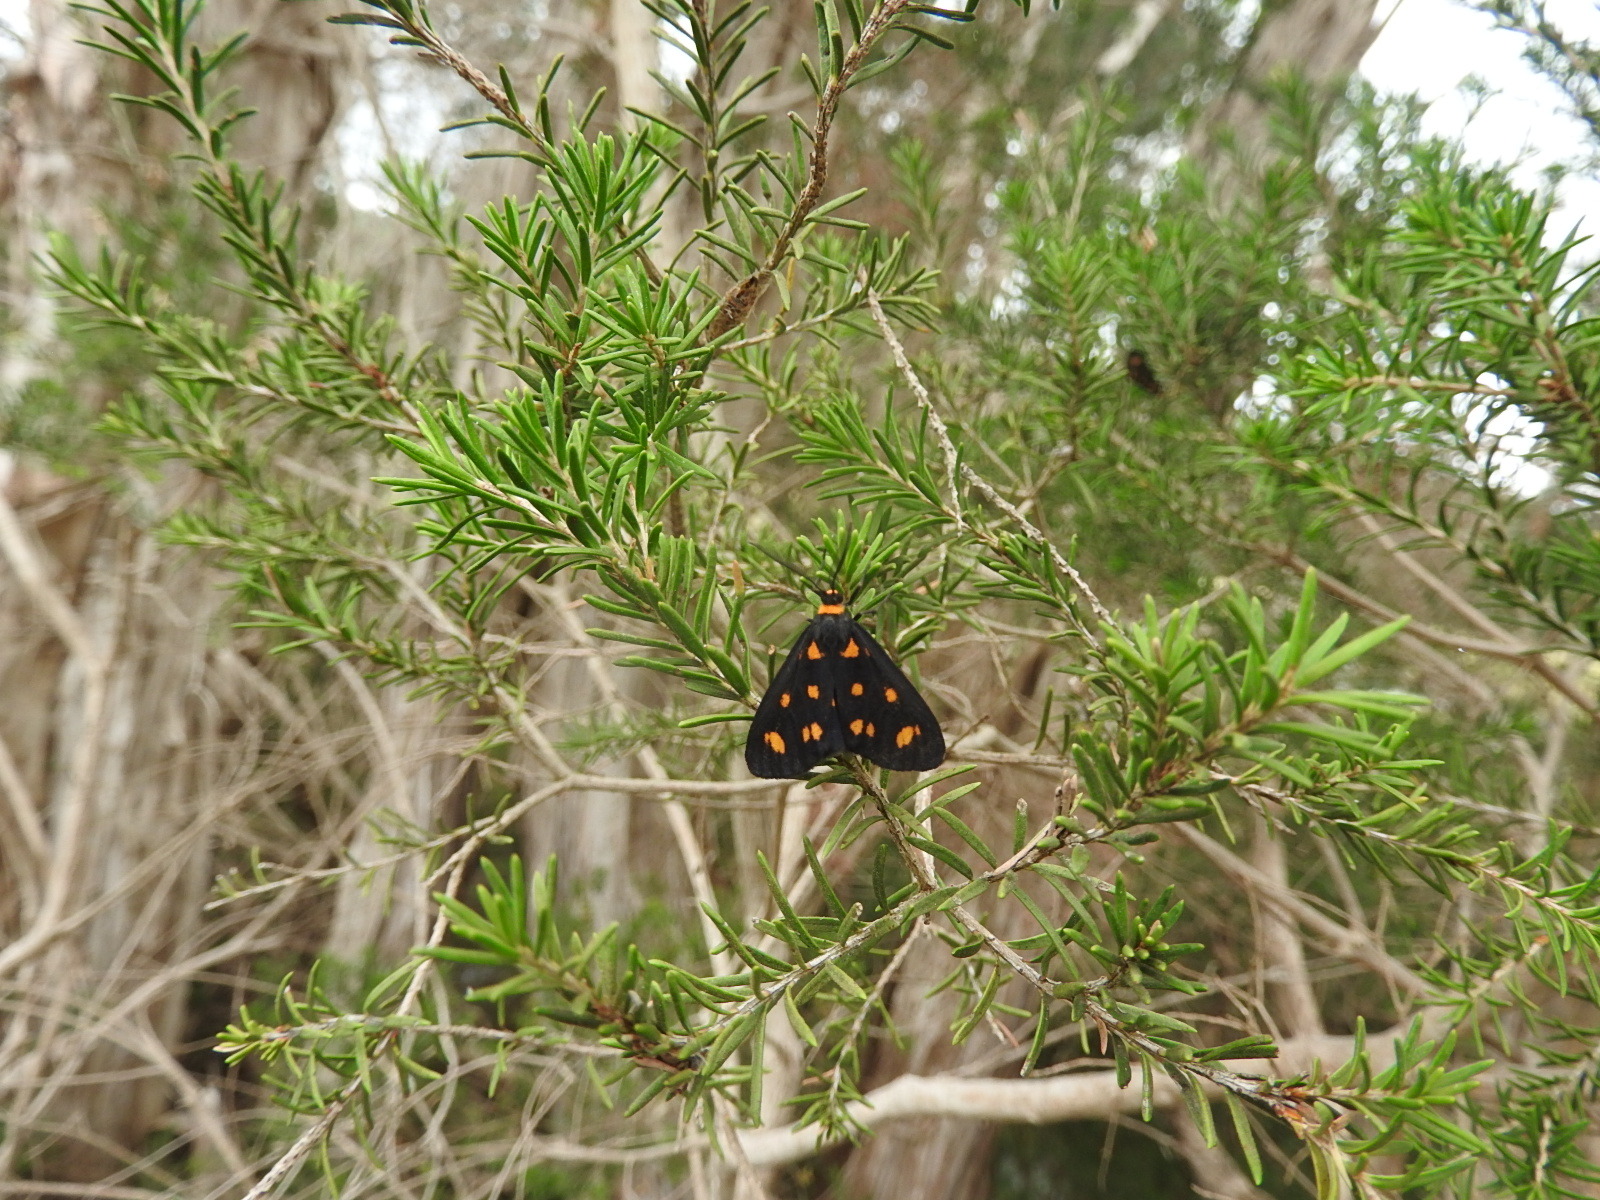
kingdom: Animalia
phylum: Arthropoda
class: Insecta
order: Lepidoptera
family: Erebidae
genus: Asura
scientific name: Asura cervicalis
